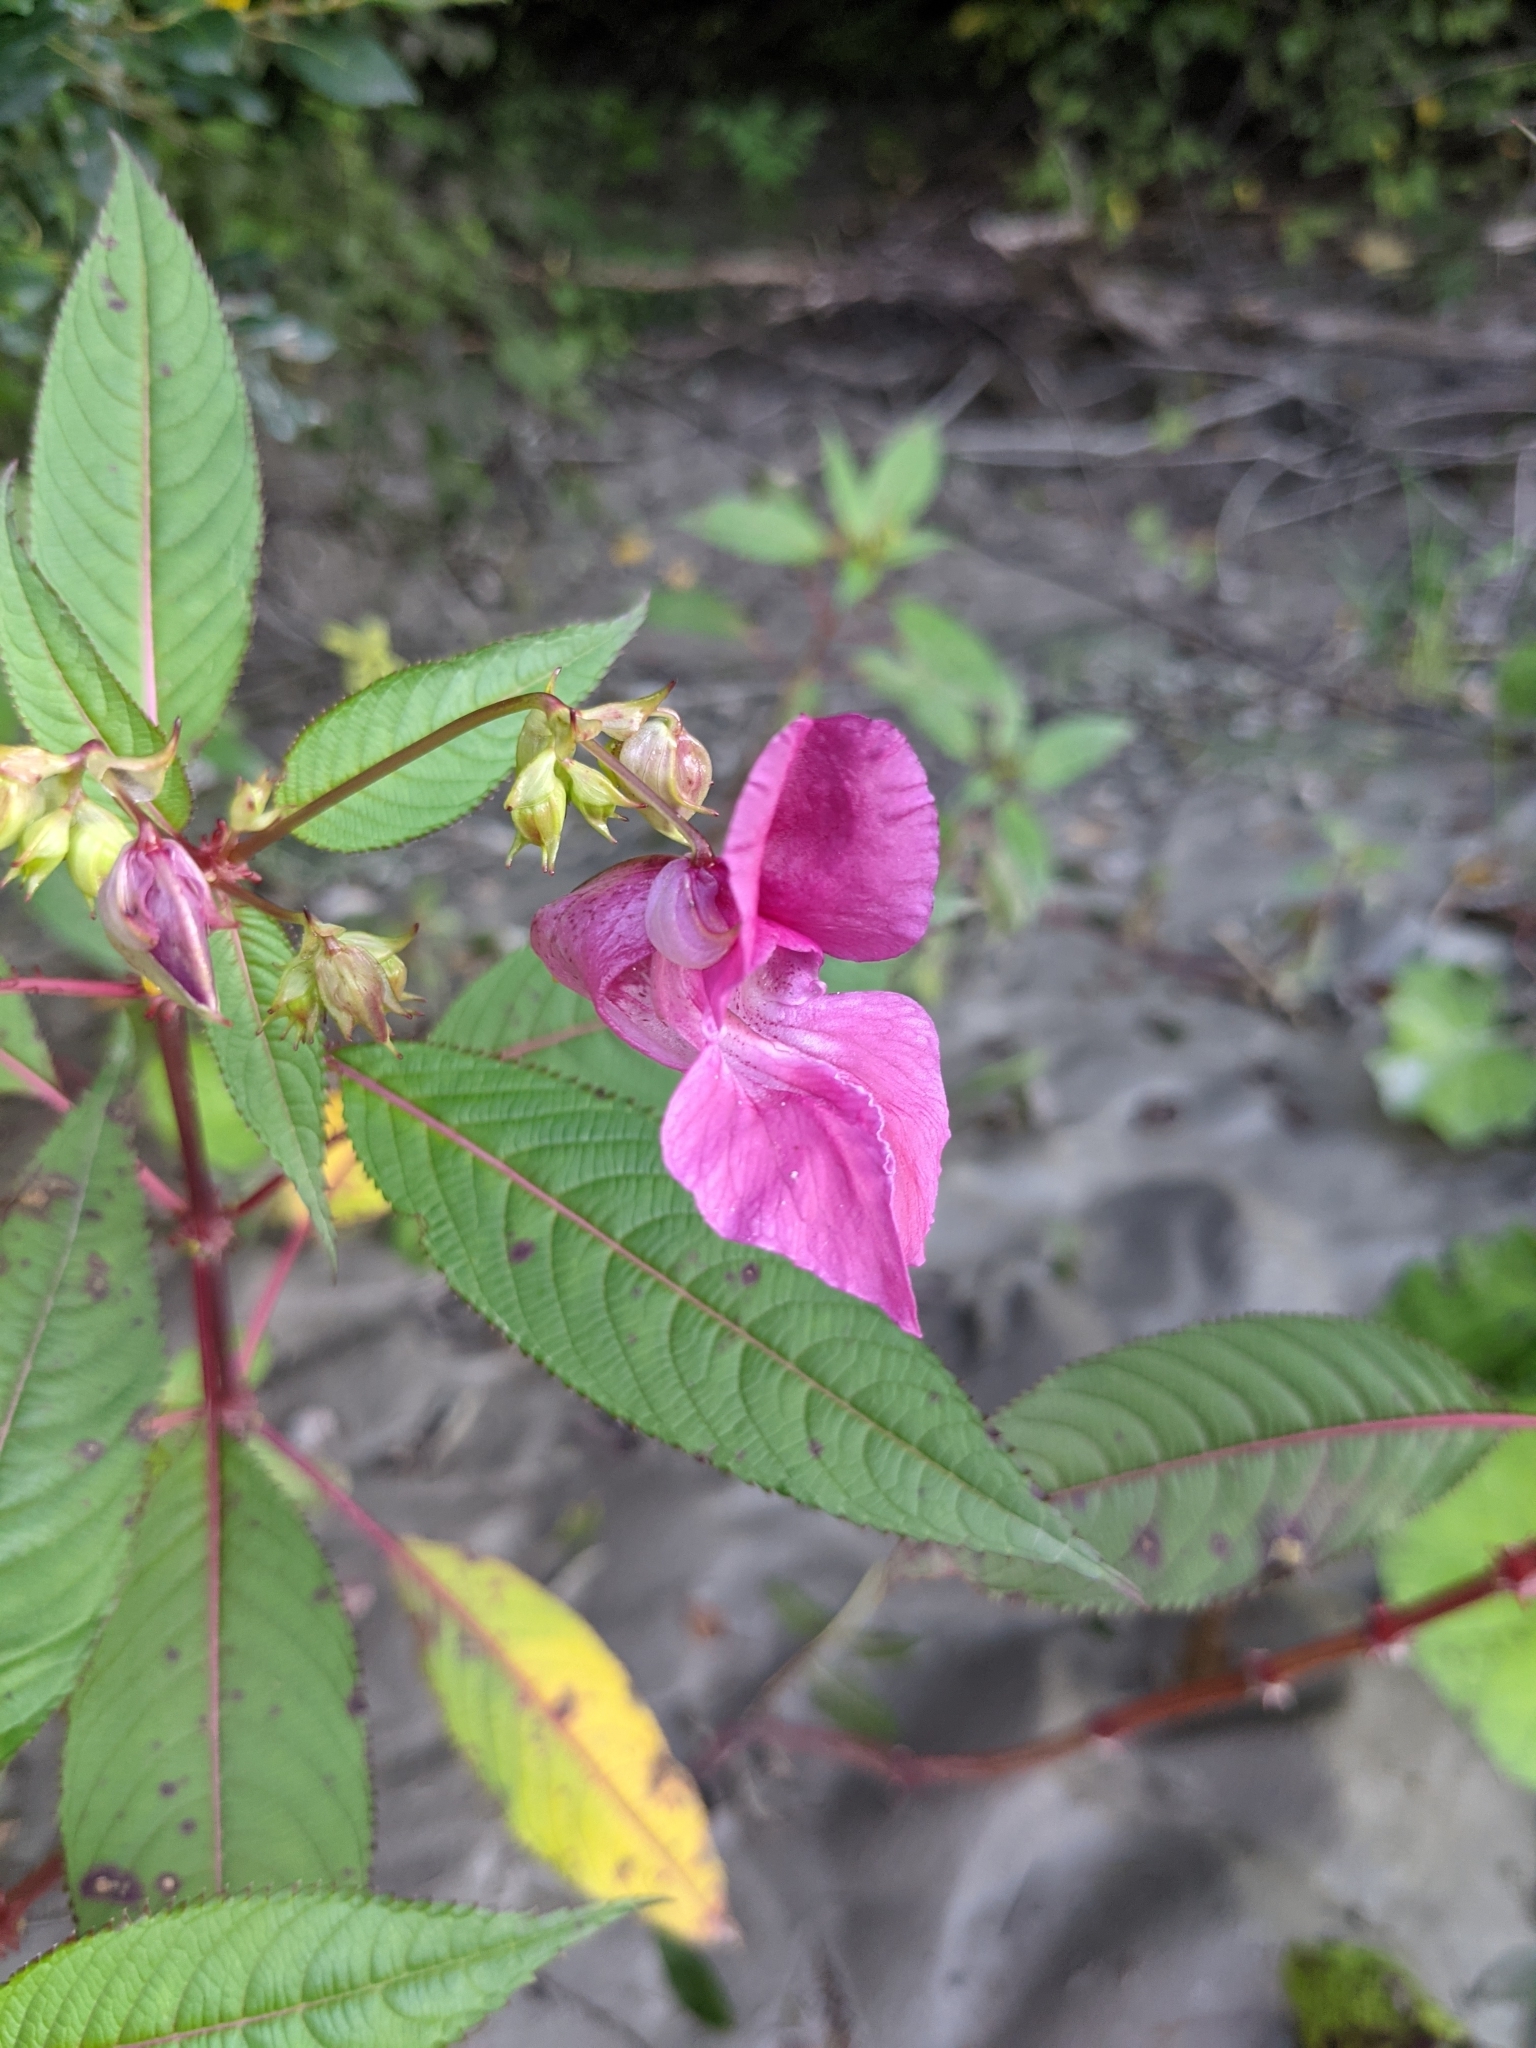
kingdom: Plantae
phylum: Tracheophyta
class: Magnoliopsida
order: Ericales
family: Balsaminaceae
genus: Impatiens
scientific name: Impatiens glandulifera
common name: Himalayan balsam
